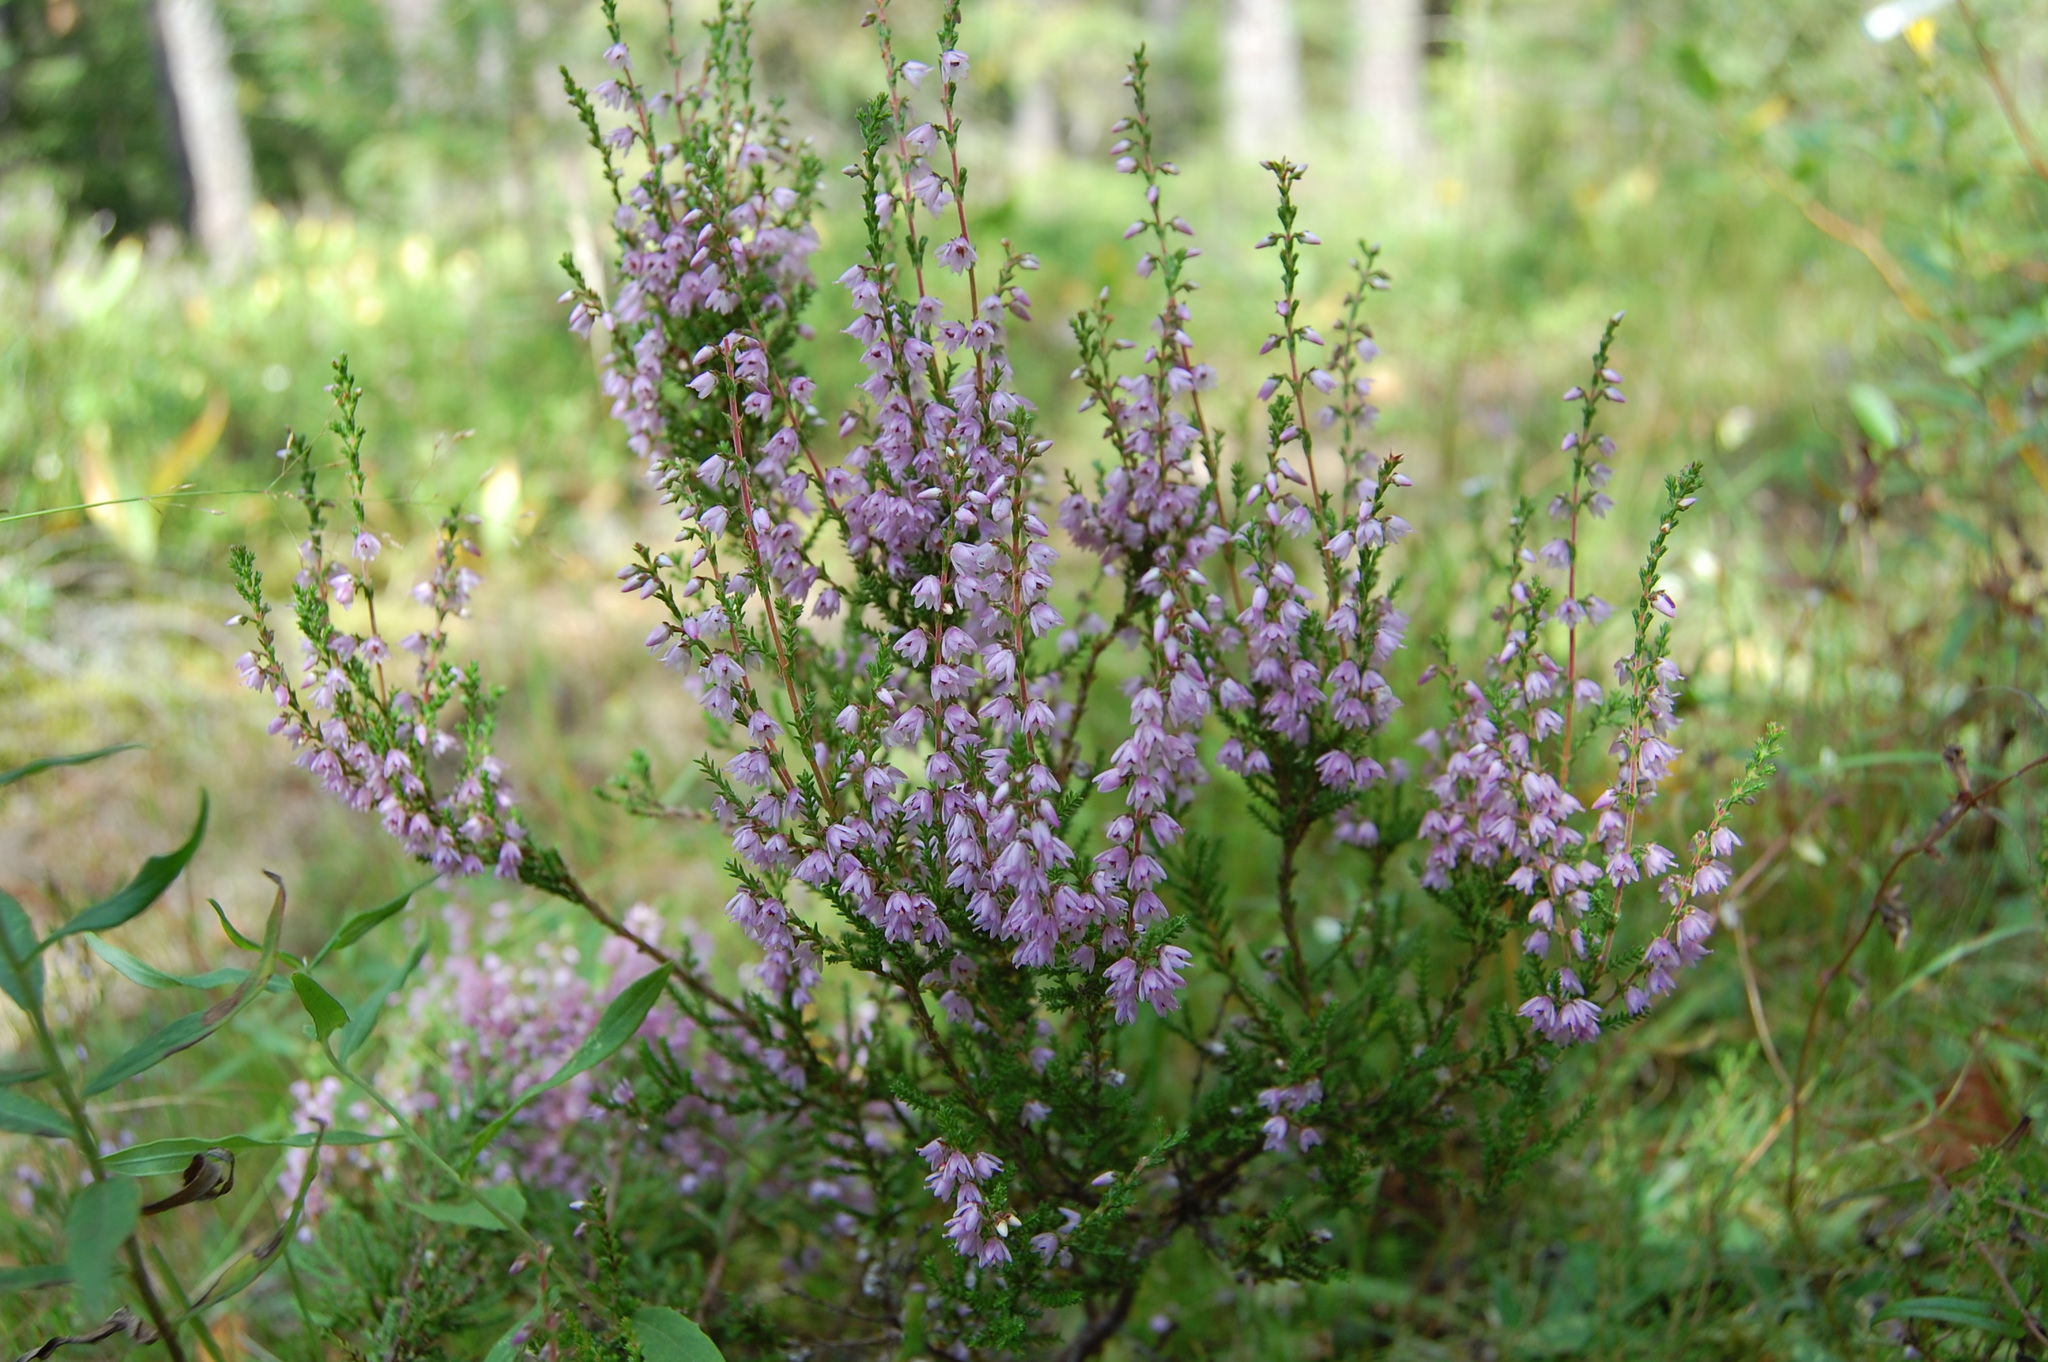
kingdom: Plantae
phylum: Tracheophyta
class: Magnoliopsida
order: Ericales
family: Ericaceae
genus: Calluna
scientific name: Calluna vulgaris
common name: Heather
